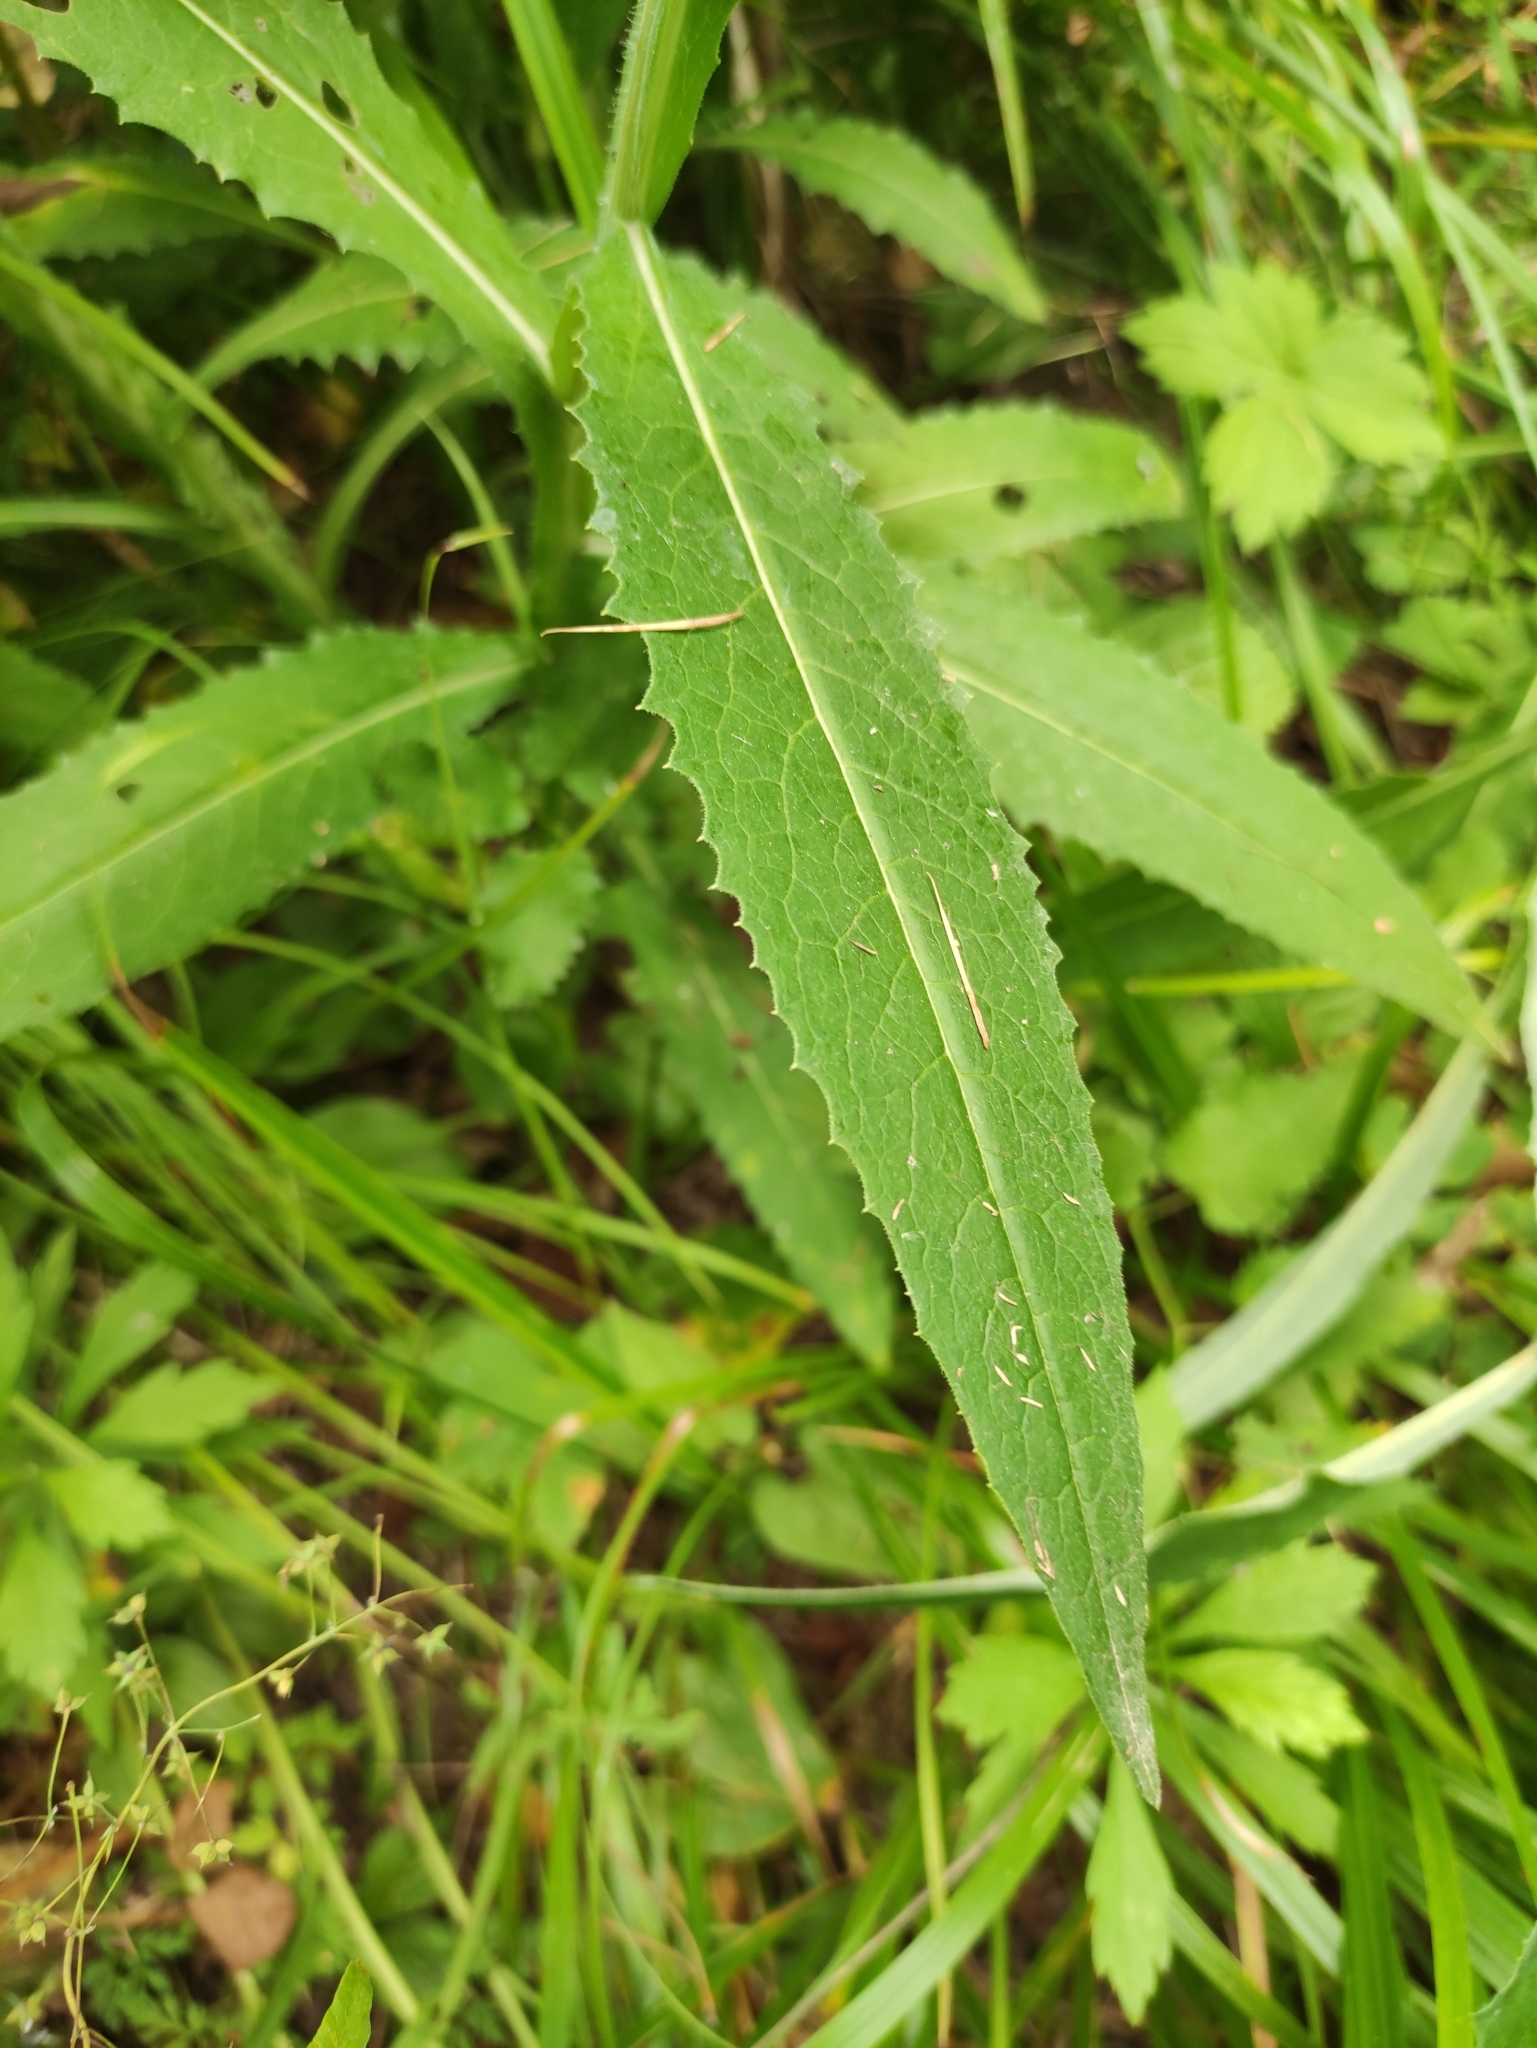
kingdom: Plantae
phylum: Tracheophyta
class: Magnoliopsida
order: Asterales
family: Asteraceae
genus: Saussurea
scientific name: Saussurea parviflora
